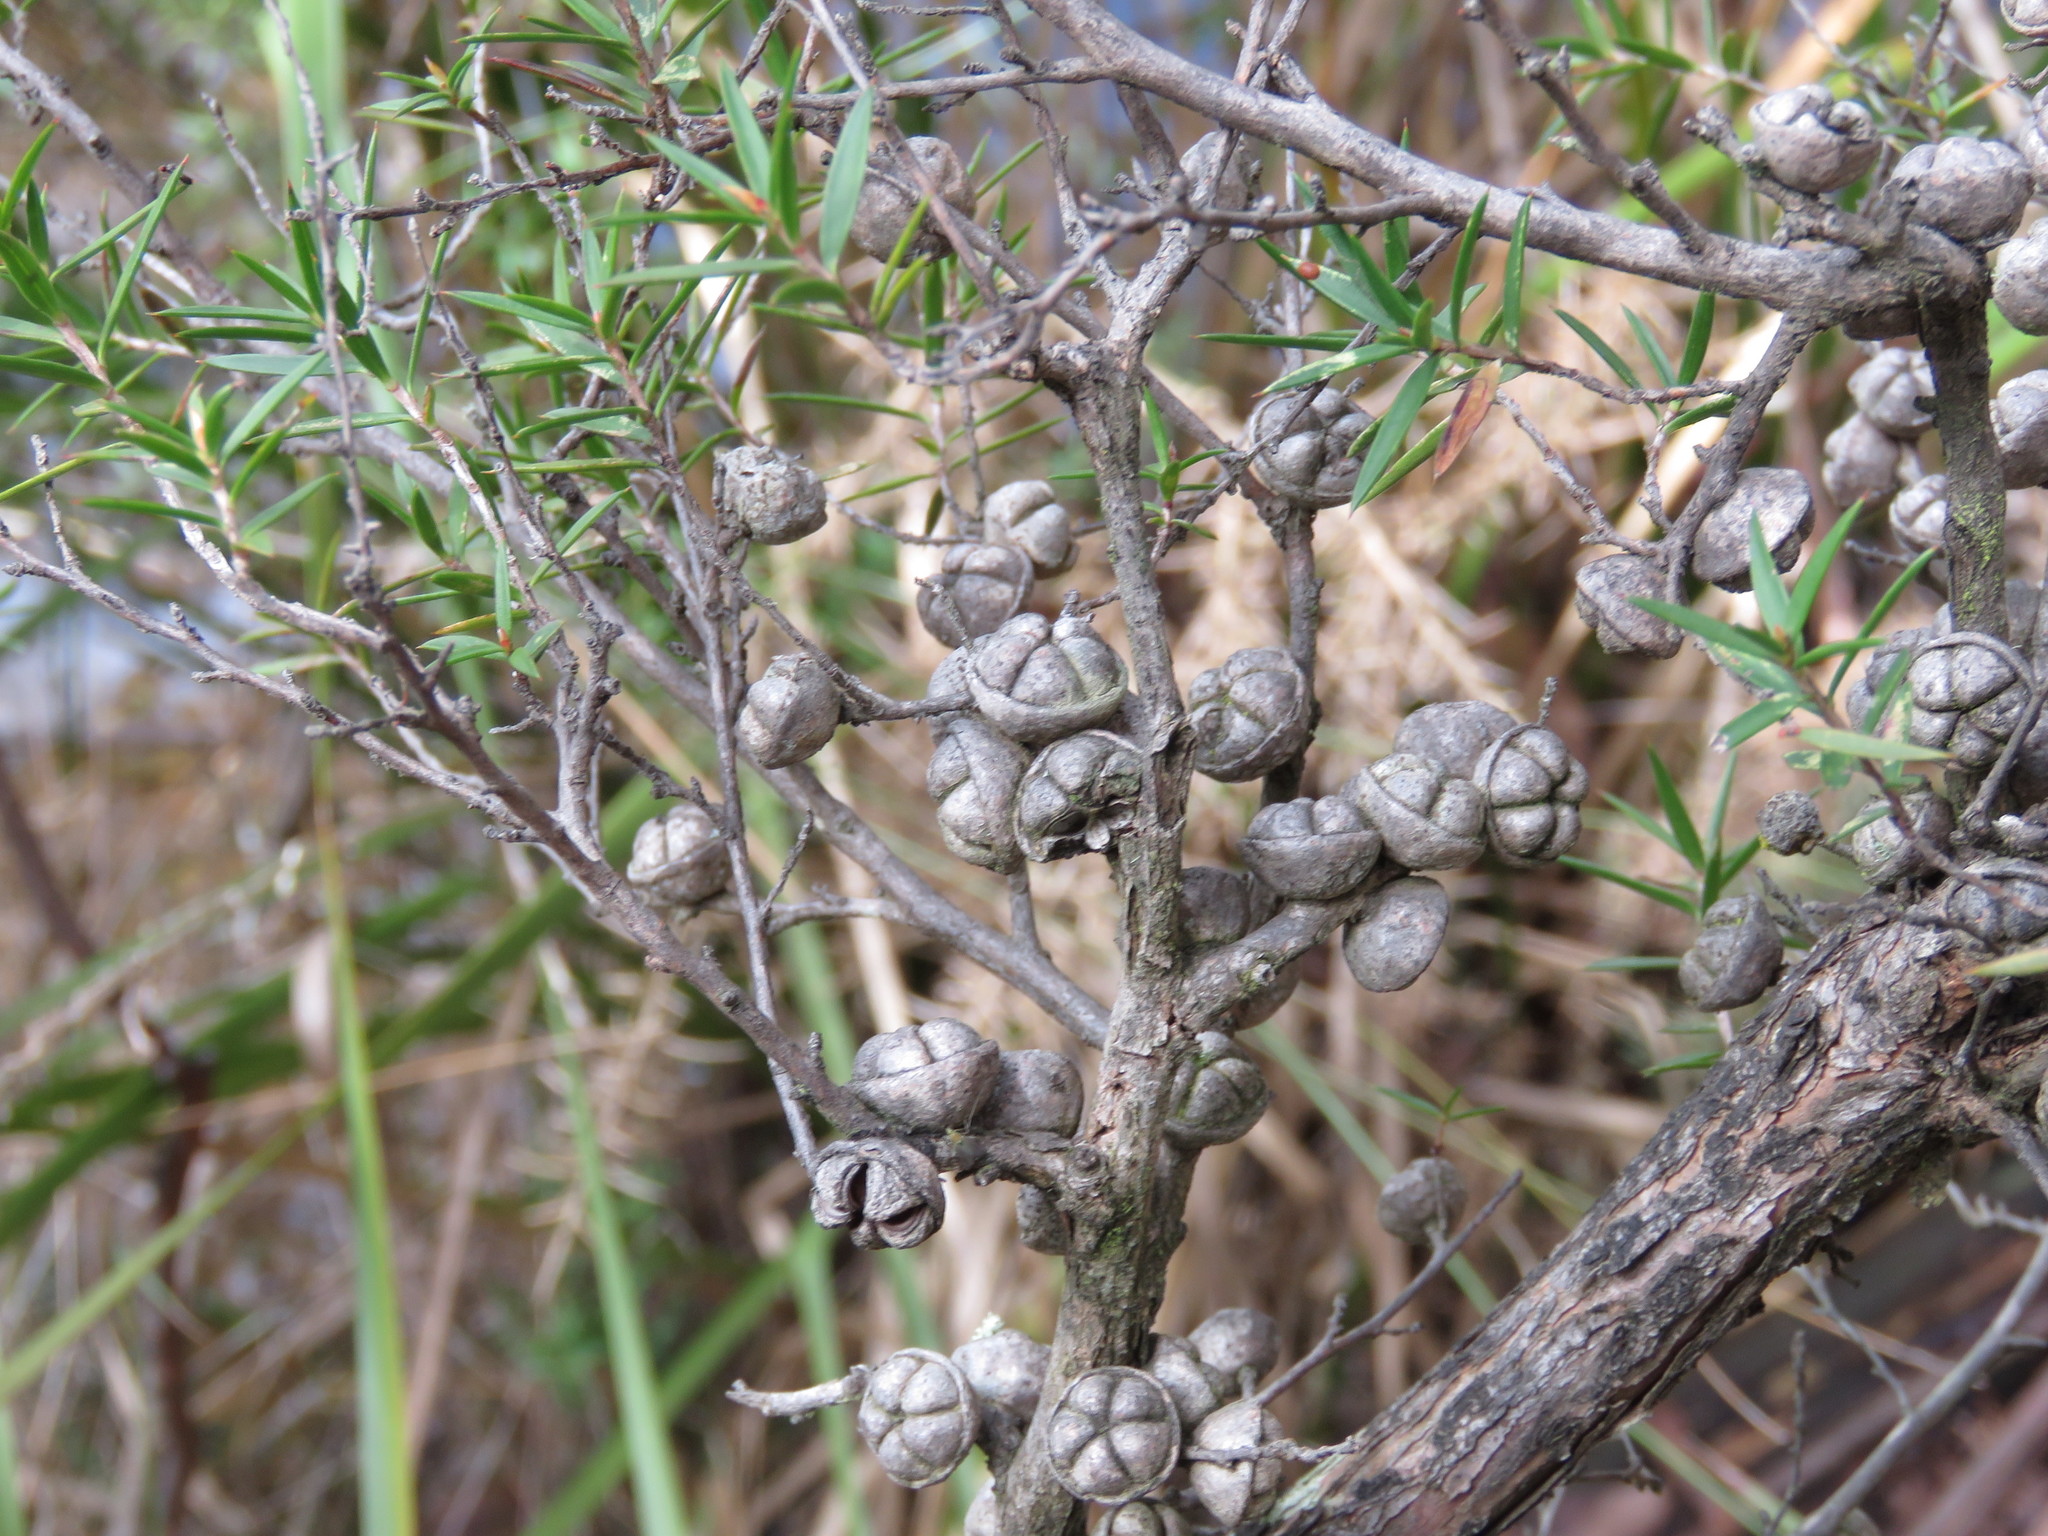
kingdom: Plantae
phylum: Tracheophyta
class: Magnoliopsida
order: Myrtales
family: Myrtaceae
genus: Leptospermum
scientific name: Leptospermum continentale
